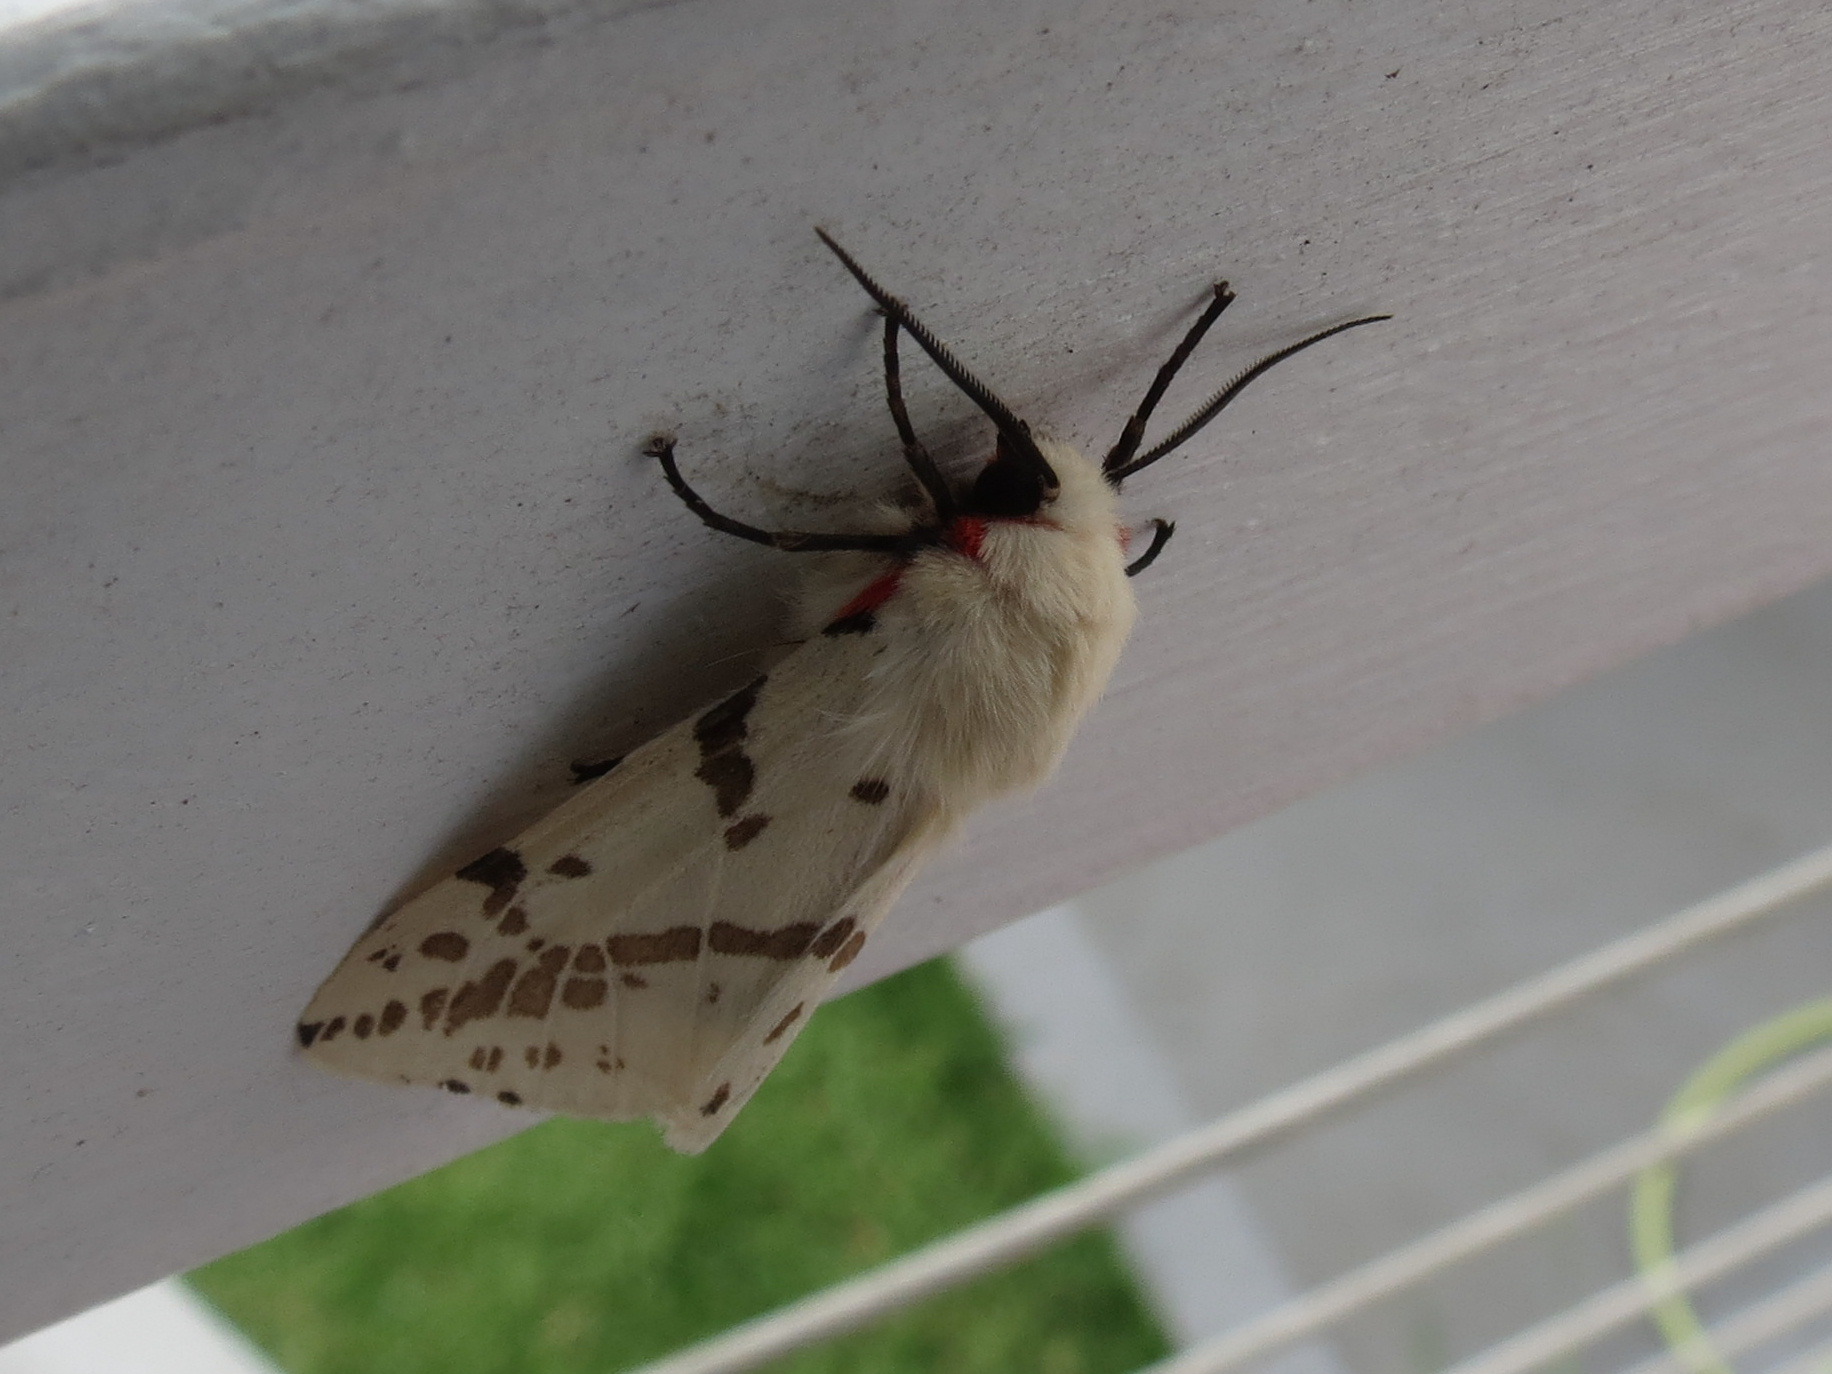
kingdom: Animalia
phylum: Arthropoda
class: Insecta
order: Lepidoptera
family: Erebidae
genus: Ardices
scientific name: Ardices canescens
